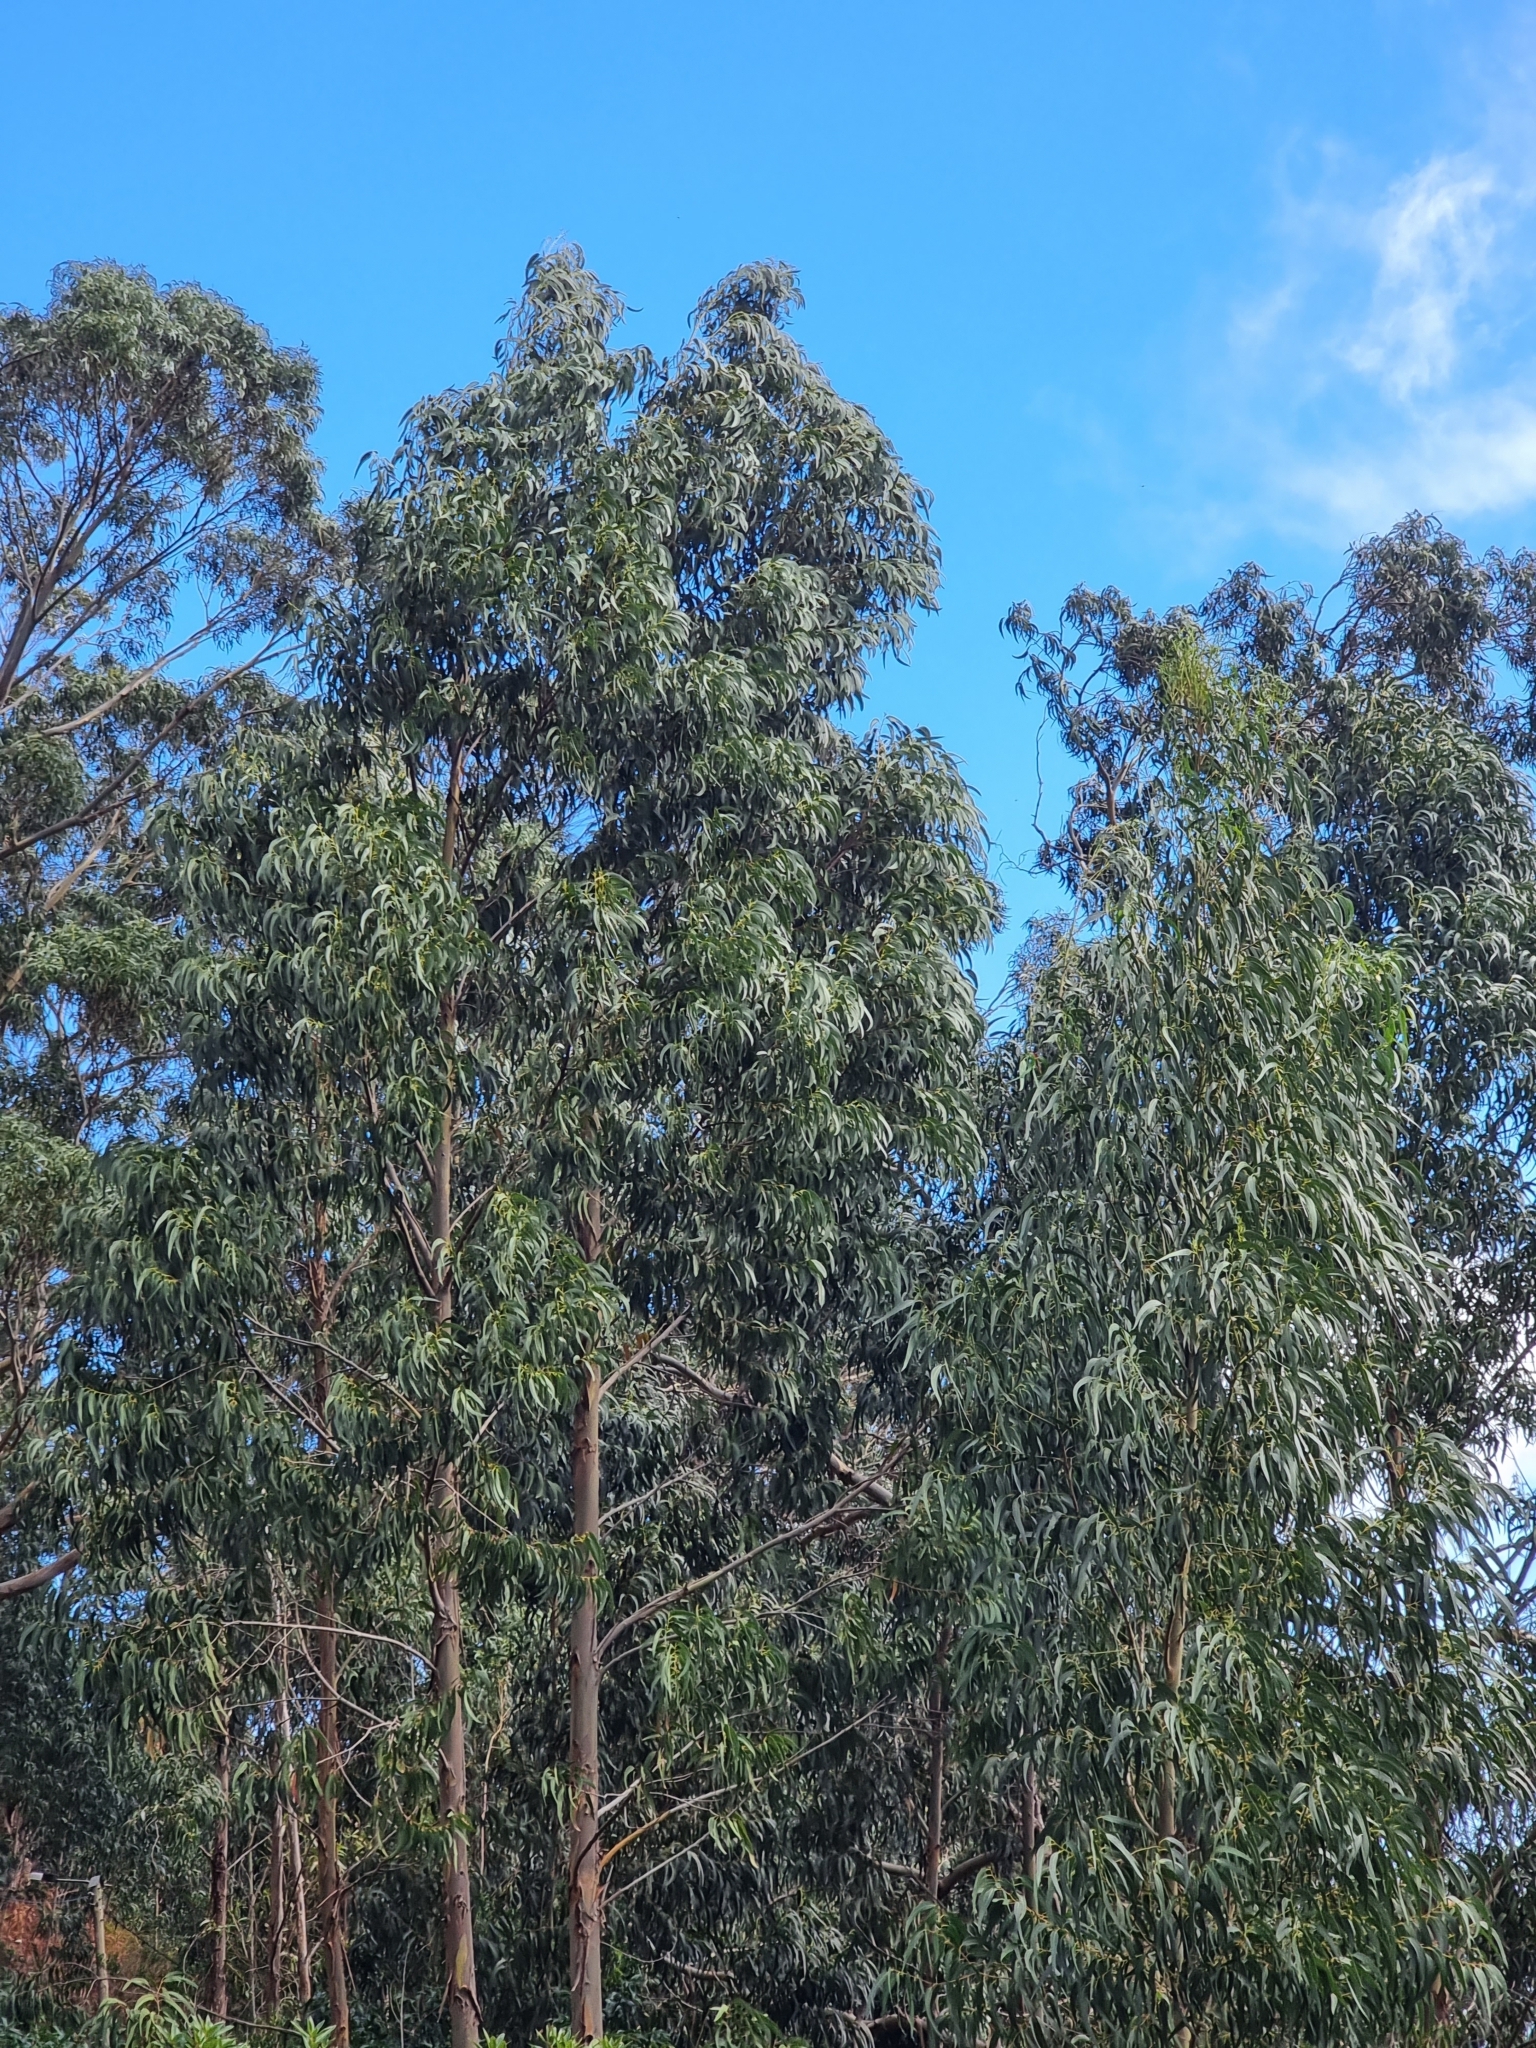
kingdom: Plantae
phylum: Tracheophyta
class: Magnoliopsida
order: Myrtales
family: Myrtaceae
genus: Eucalyptus
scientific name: Eucalyptus globulus
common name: Southern blue-gum
